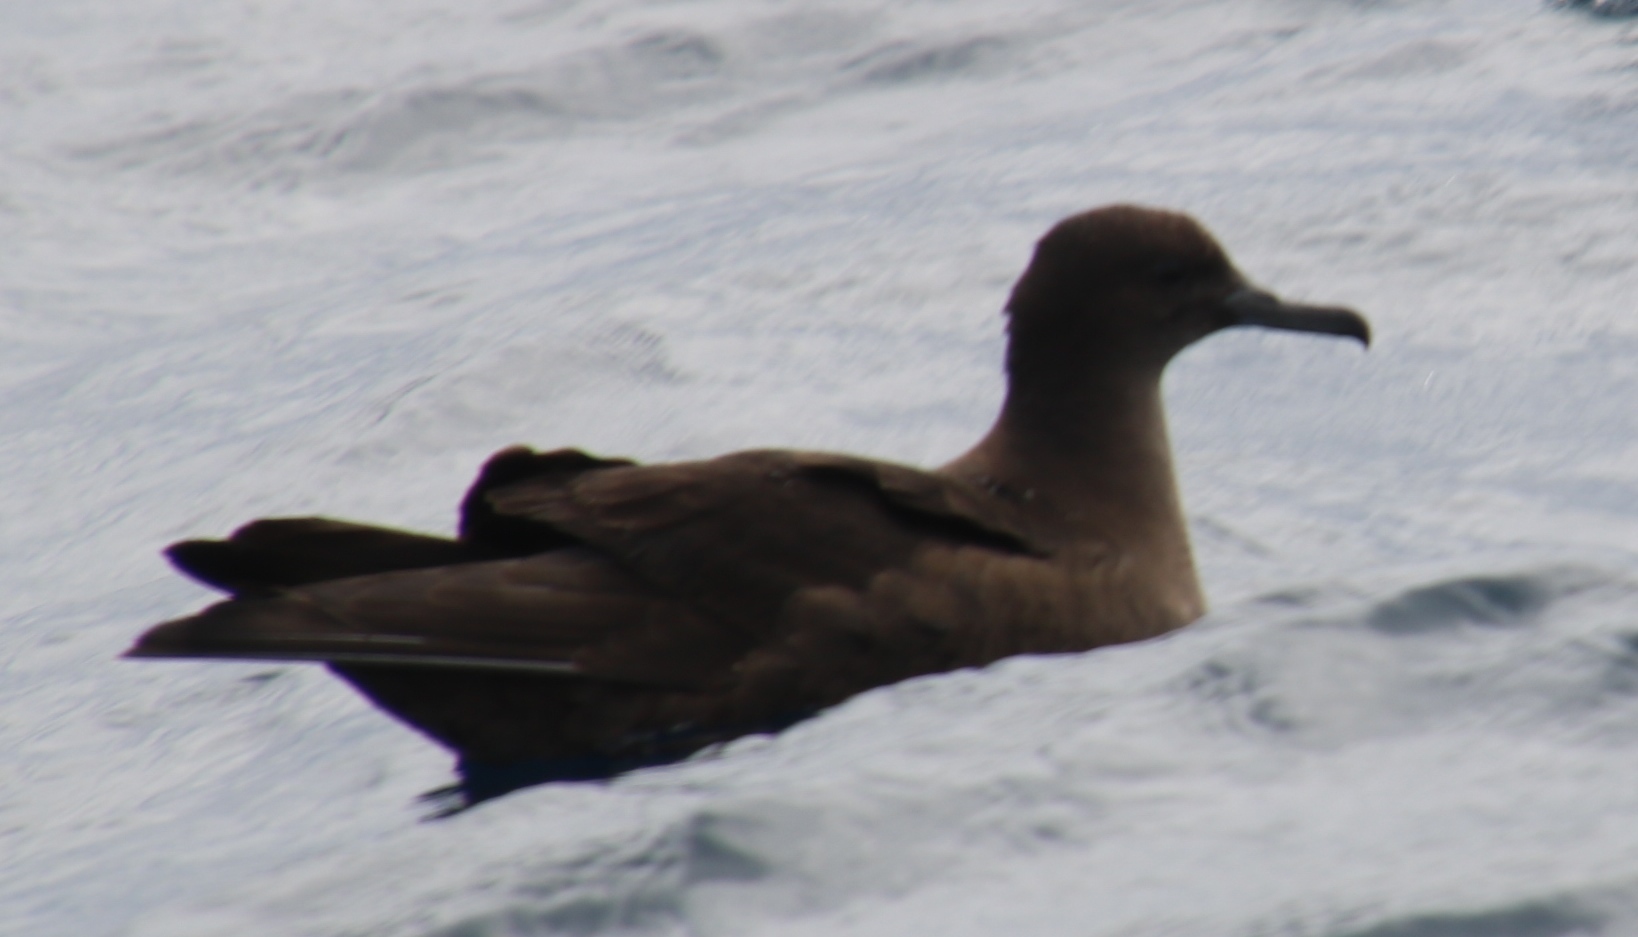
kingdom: Animalia
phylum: Chordata
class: Aves
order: Procellariiformes
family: Procellariidae
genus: Puffinus
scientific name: Puffinus griseus
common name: Sooty shearwater
